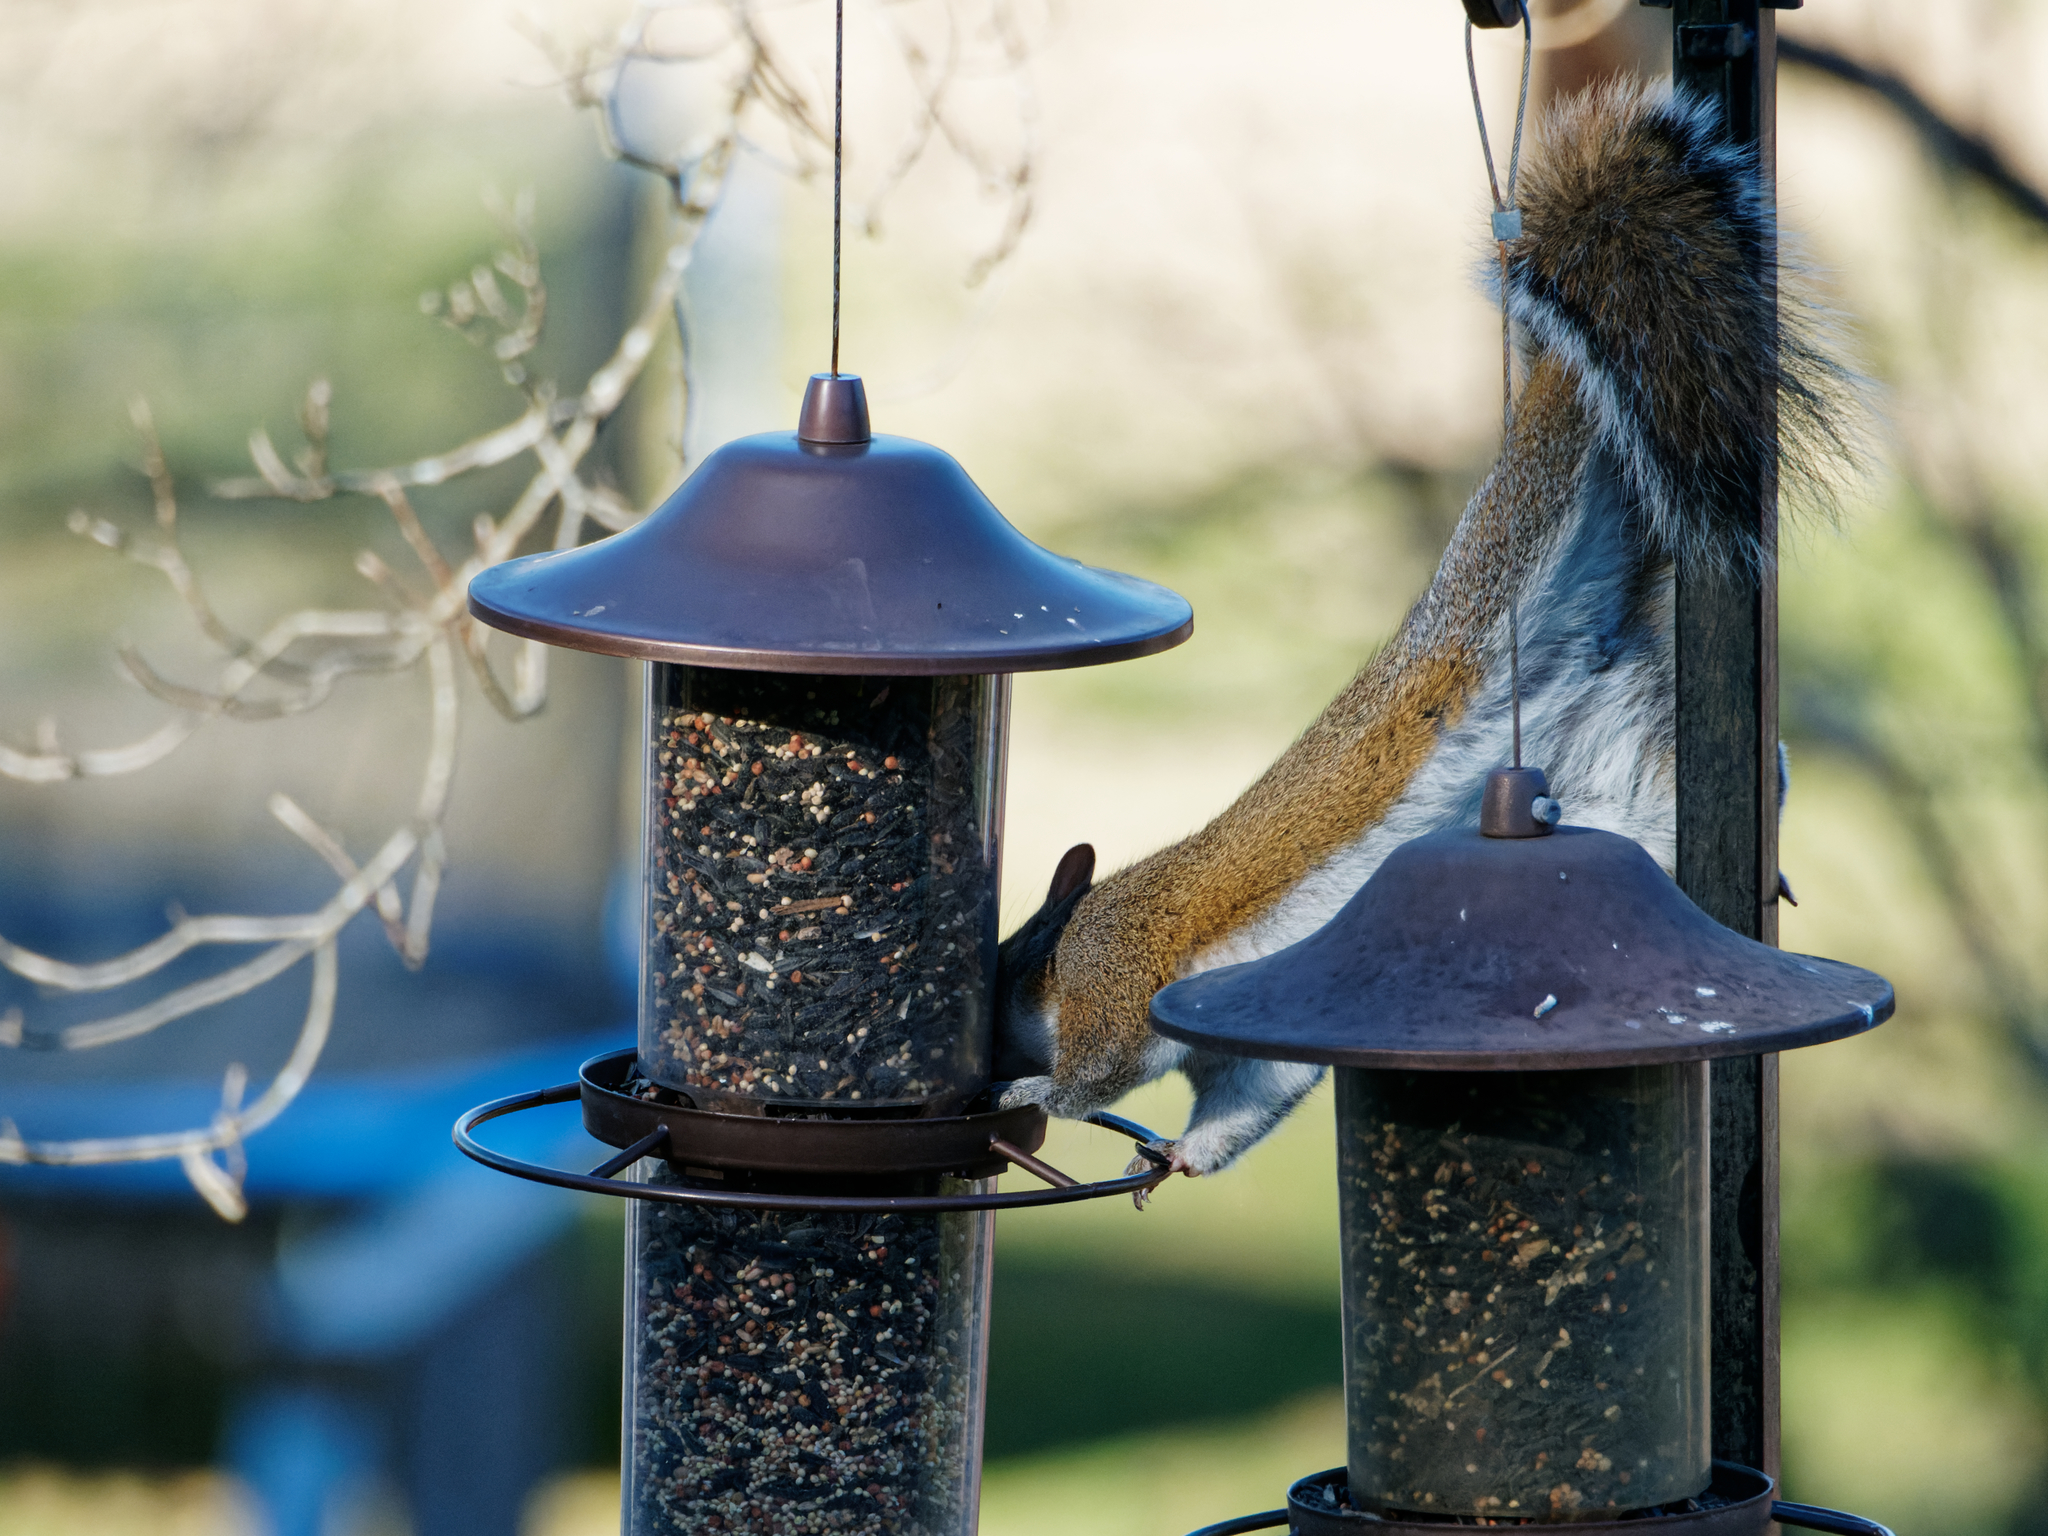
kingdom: Animalia
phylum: Chordata
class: Mammalia
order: Rodentia
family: Sciuridae
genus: Sciurus
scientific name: Sciurus carolinensis
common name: Eastern gray squirrel
